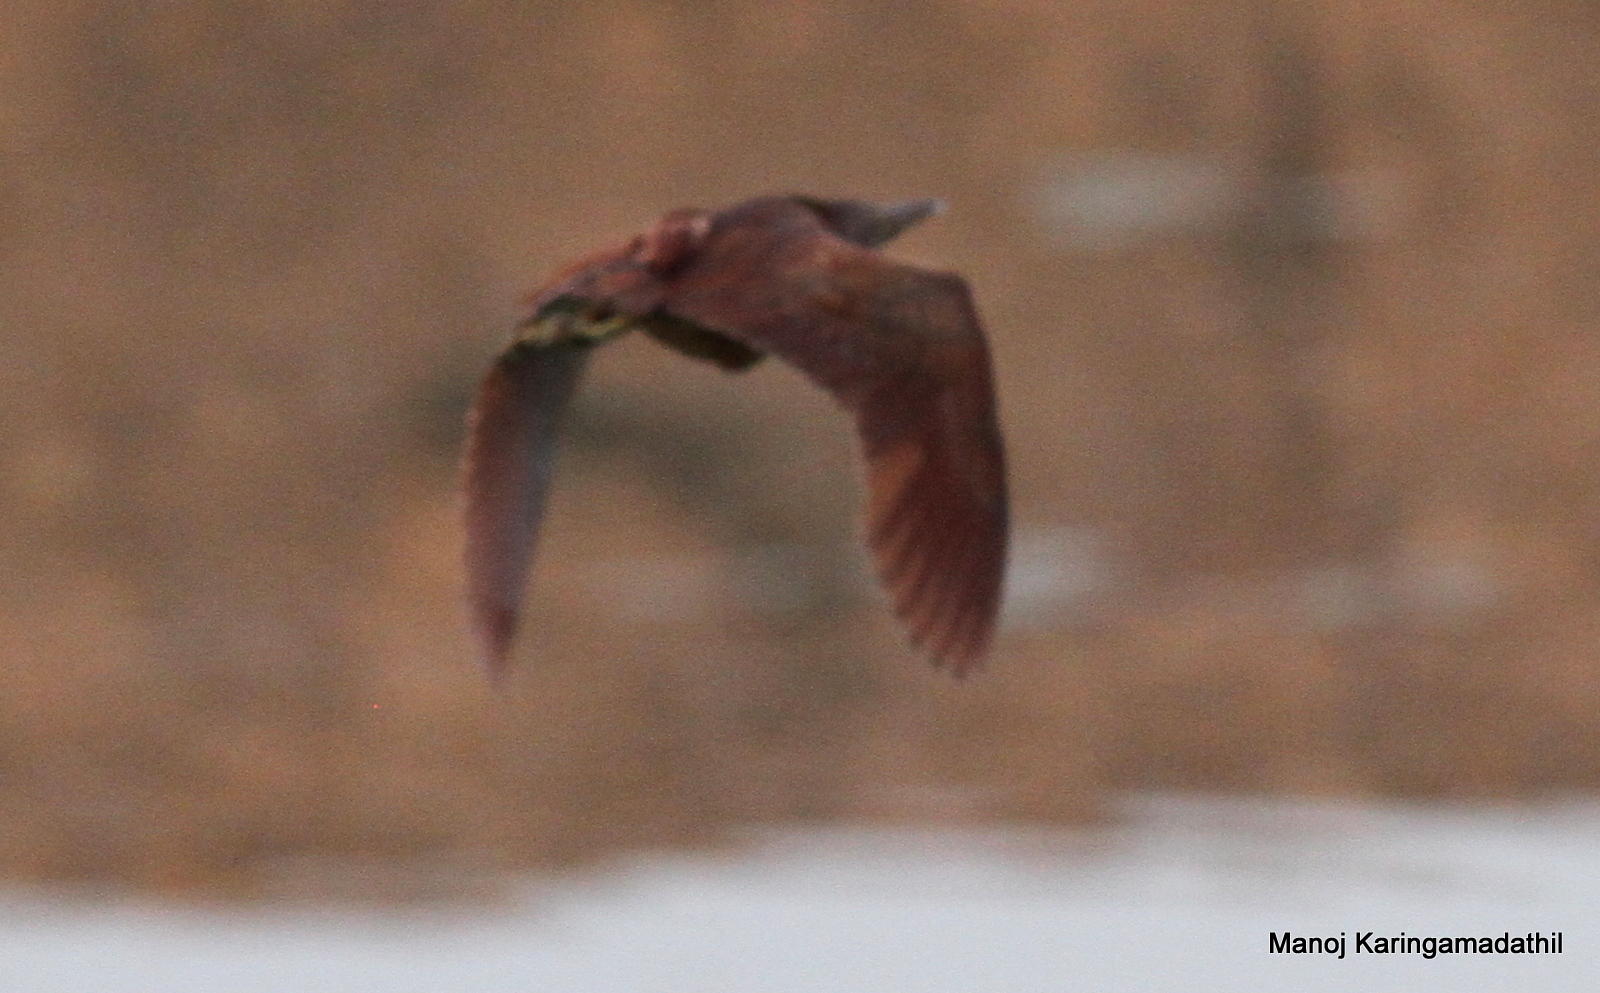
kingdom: Animalia
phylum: Chordata
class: Aves
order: Pelecaniformes
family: Ardeidae
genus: Ixobrychus
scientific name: Ixobrychus cinnamomeus
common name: Cinnamon bittern
